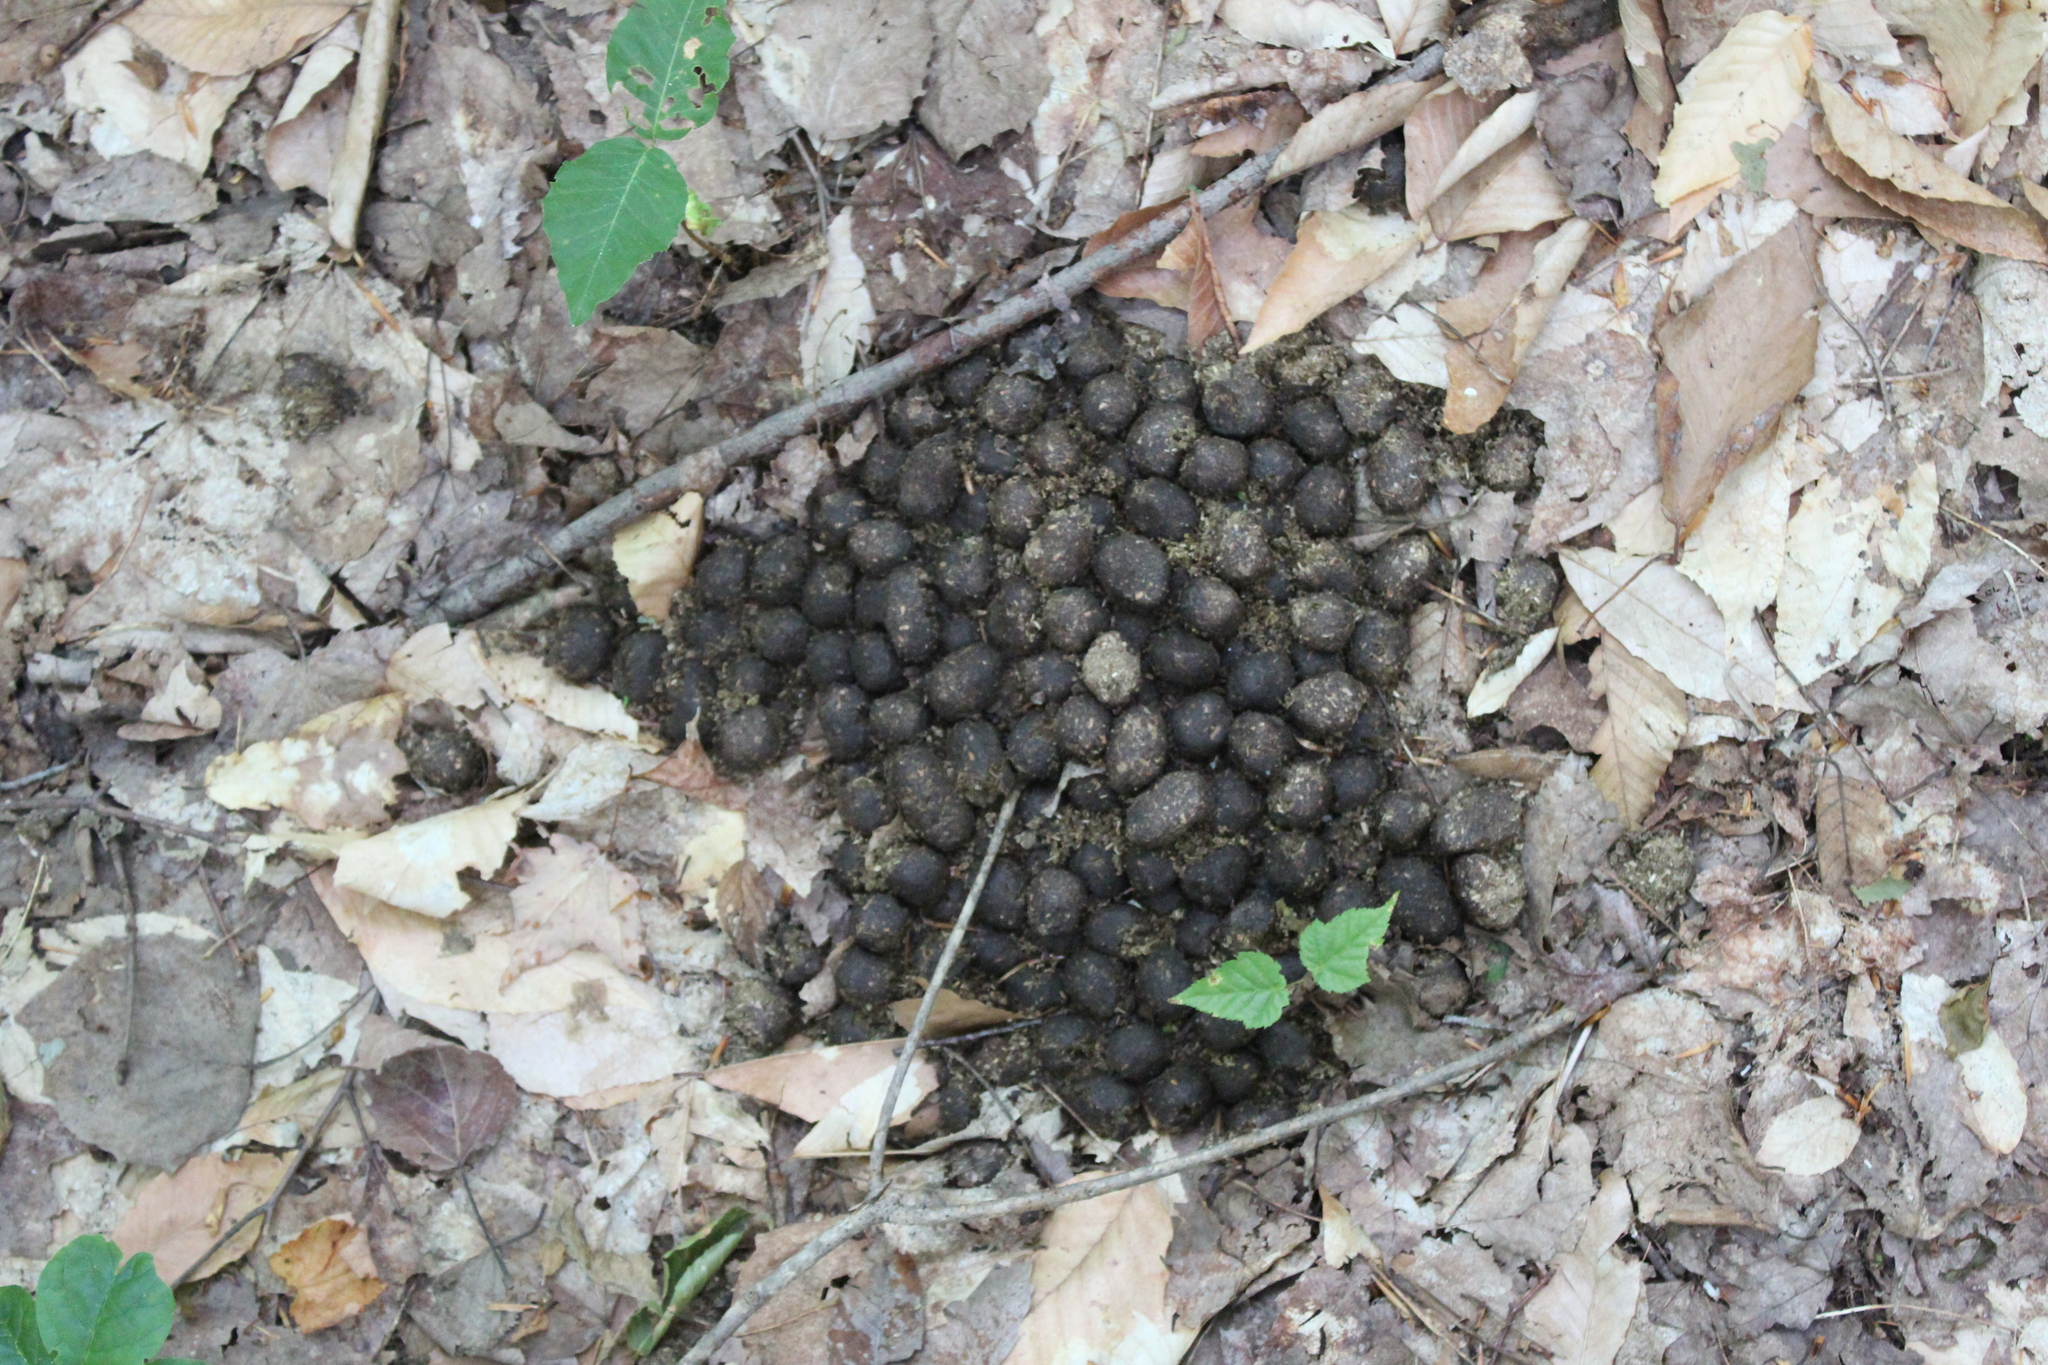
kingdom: Animalia
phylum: Chordata
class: Mammalia
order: Artiodactyla
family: Cervidae
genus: Alces
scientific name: Alces alces
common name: Moose
